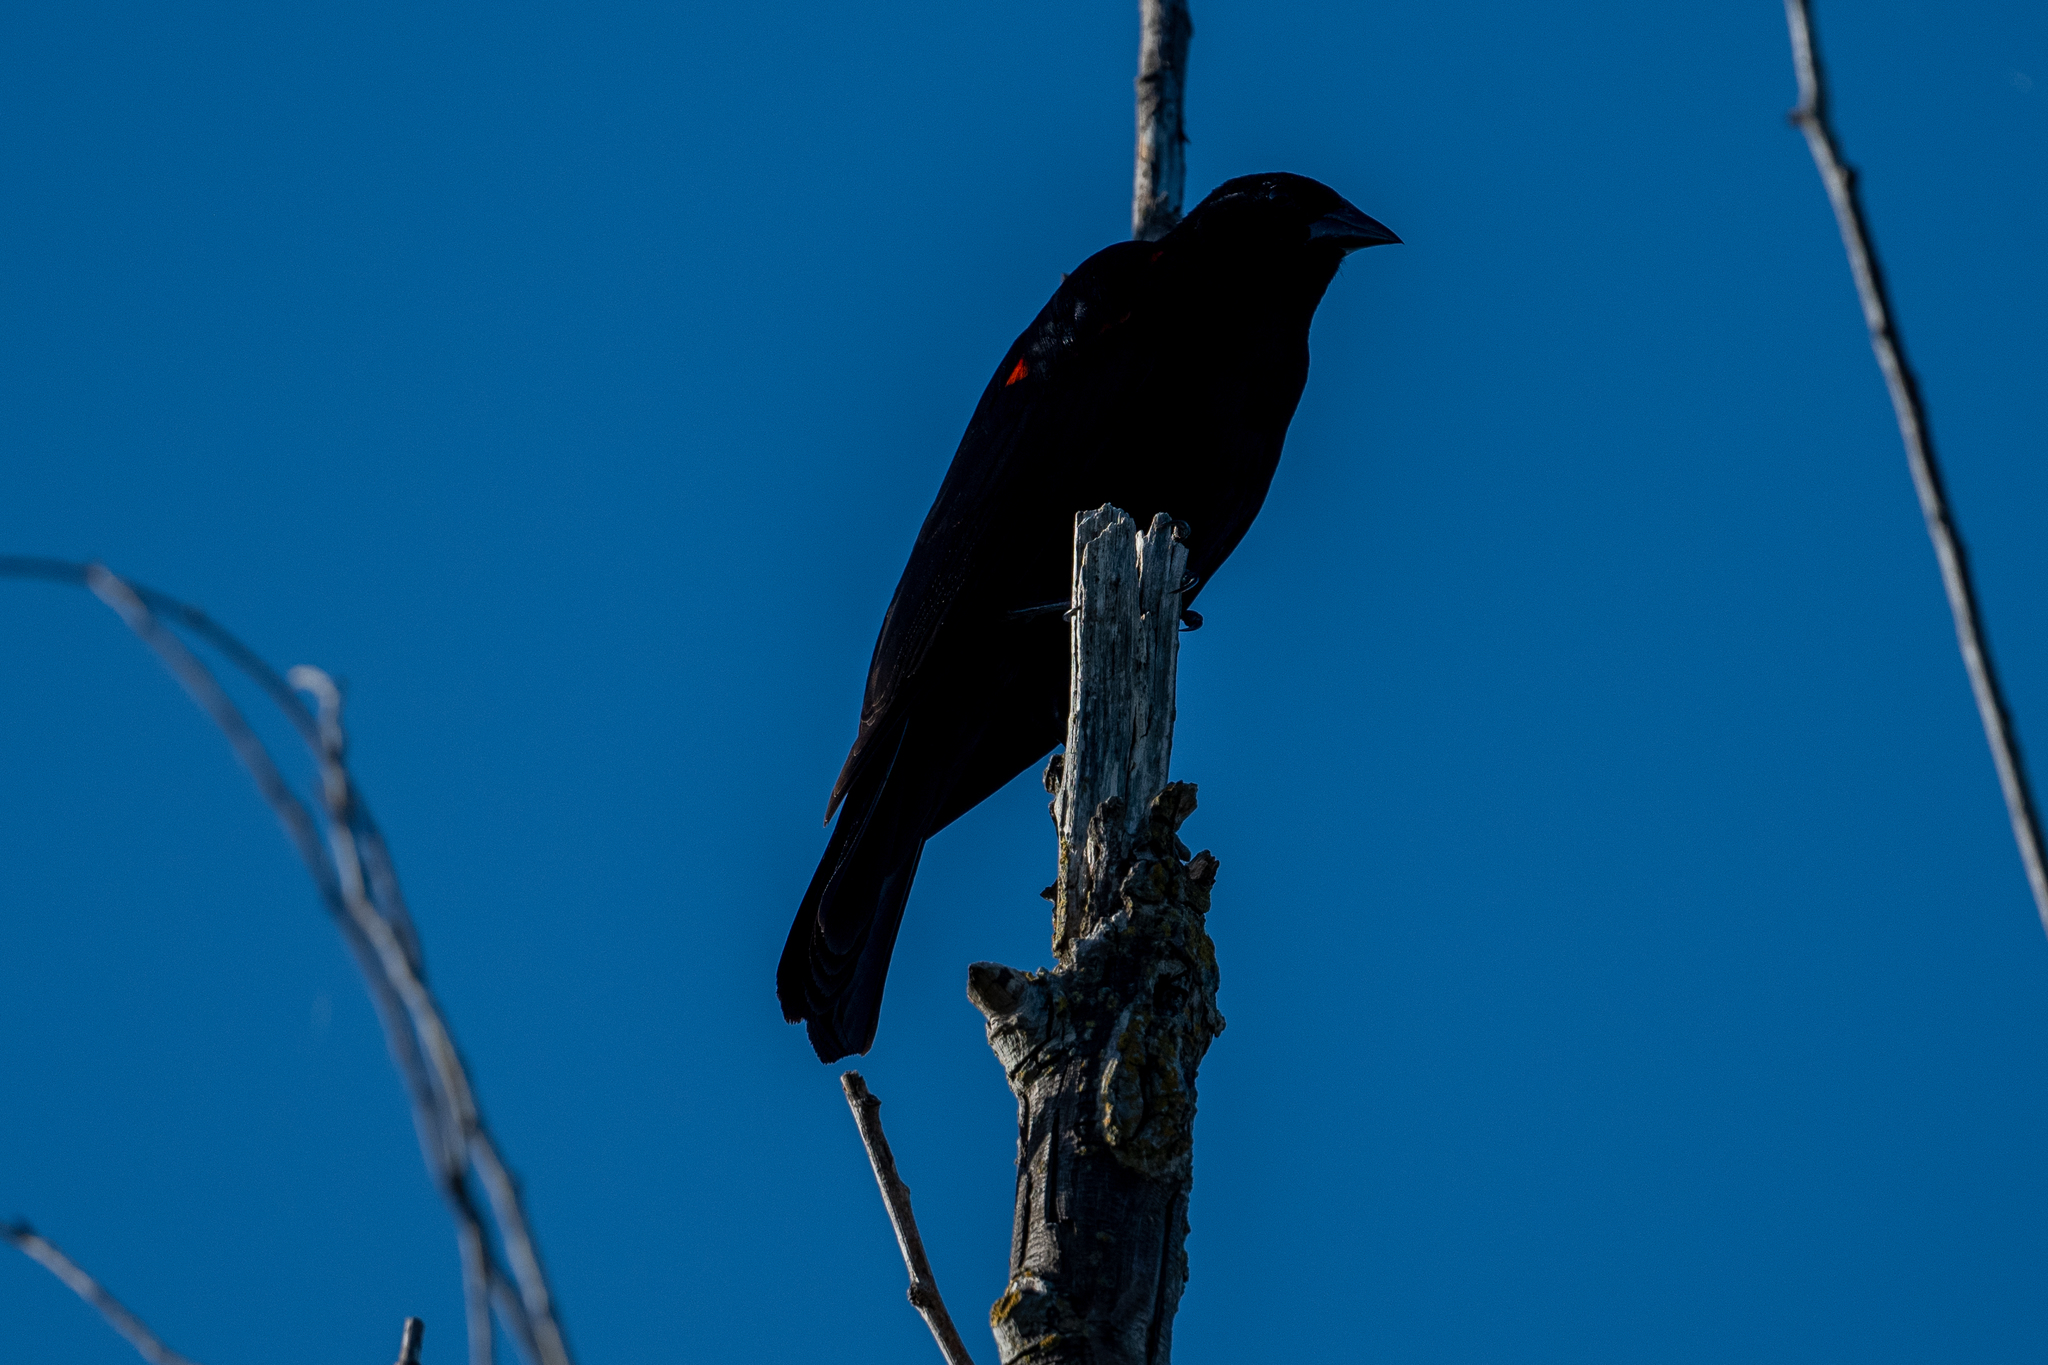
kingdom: Animalia
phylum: Chordata
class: Aves
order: Passeriformes
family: Icteridae
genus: Agelaius
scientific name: Agelaius phoeniceus
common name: Red-winged blackbird
